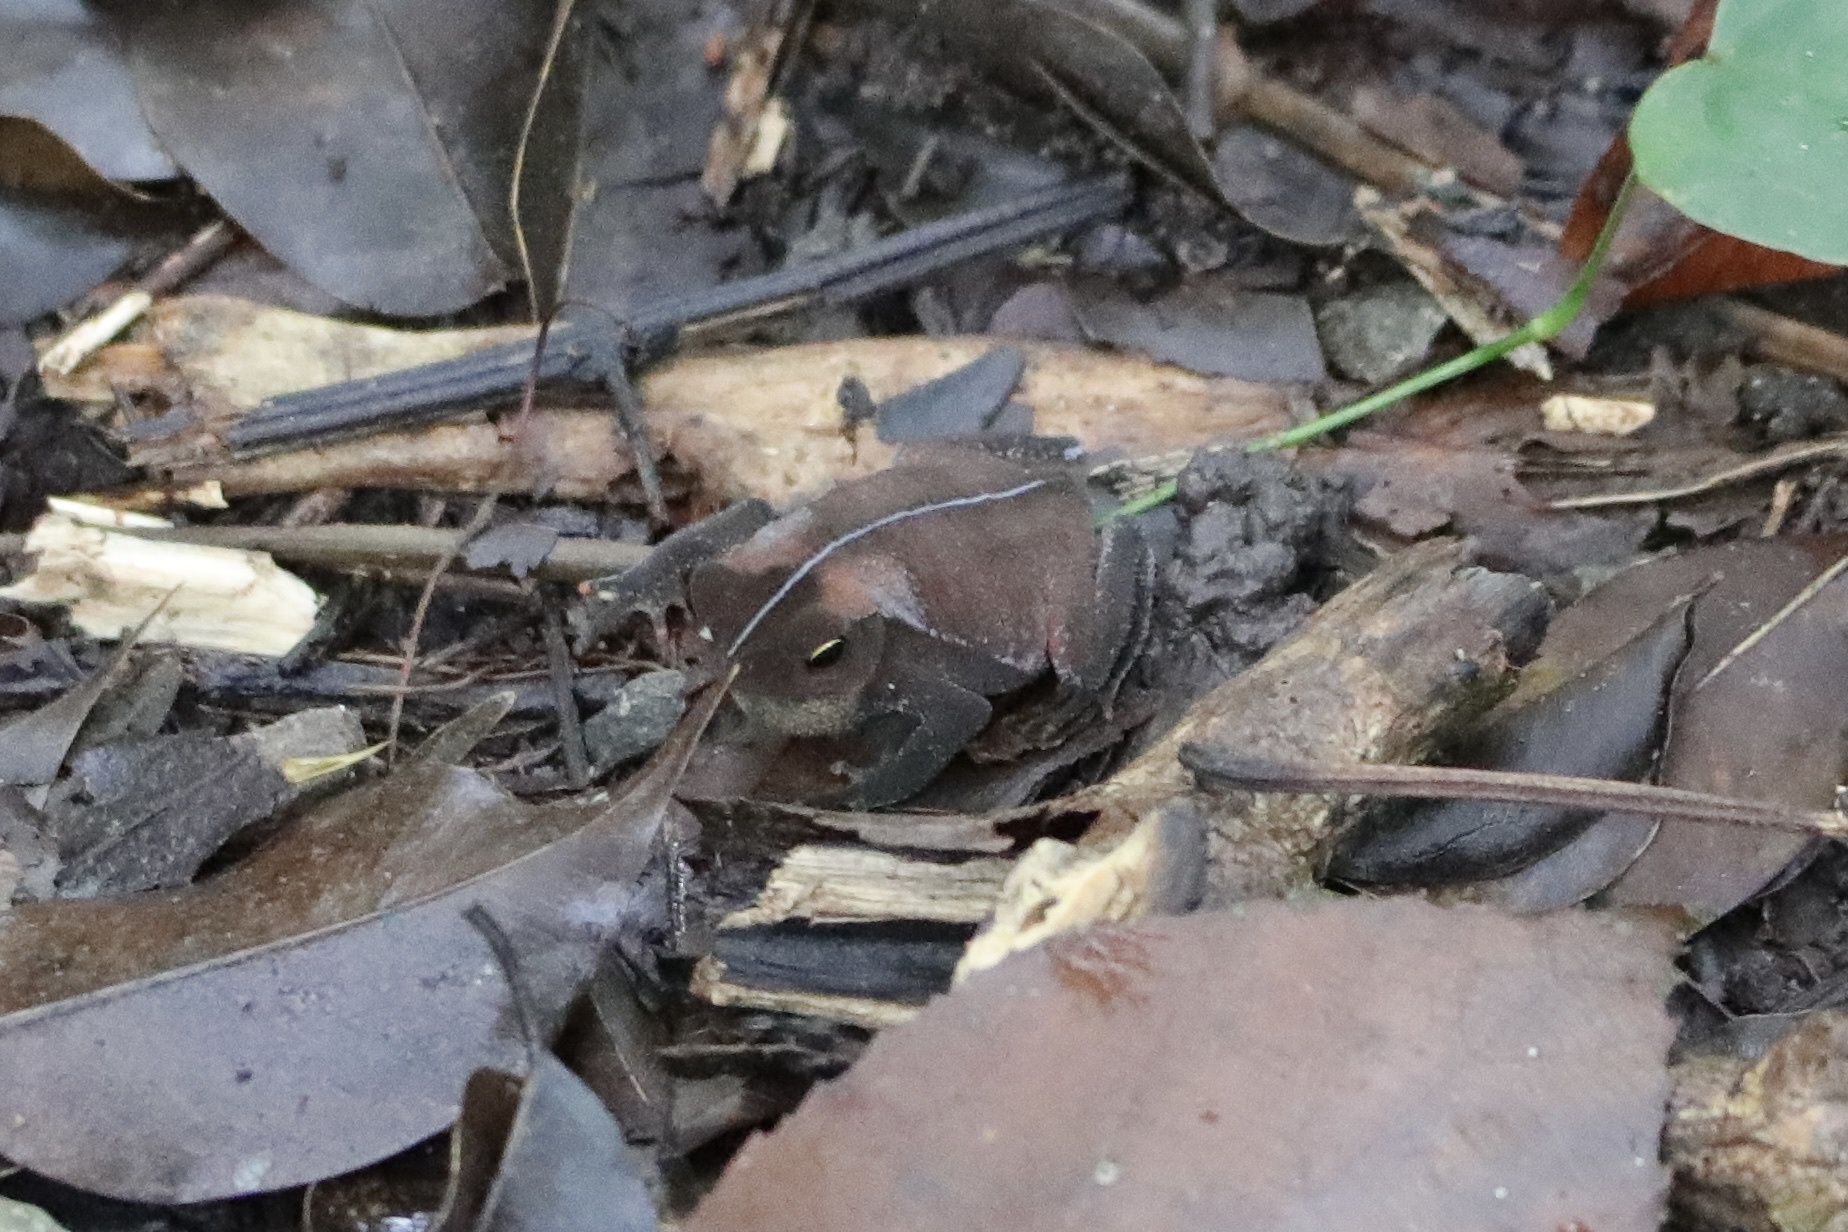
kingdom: Animalia
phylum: Chordata
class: Amphibia
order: Anura
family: Bufonidae
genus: Rhinella
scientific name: Rhinella alata
